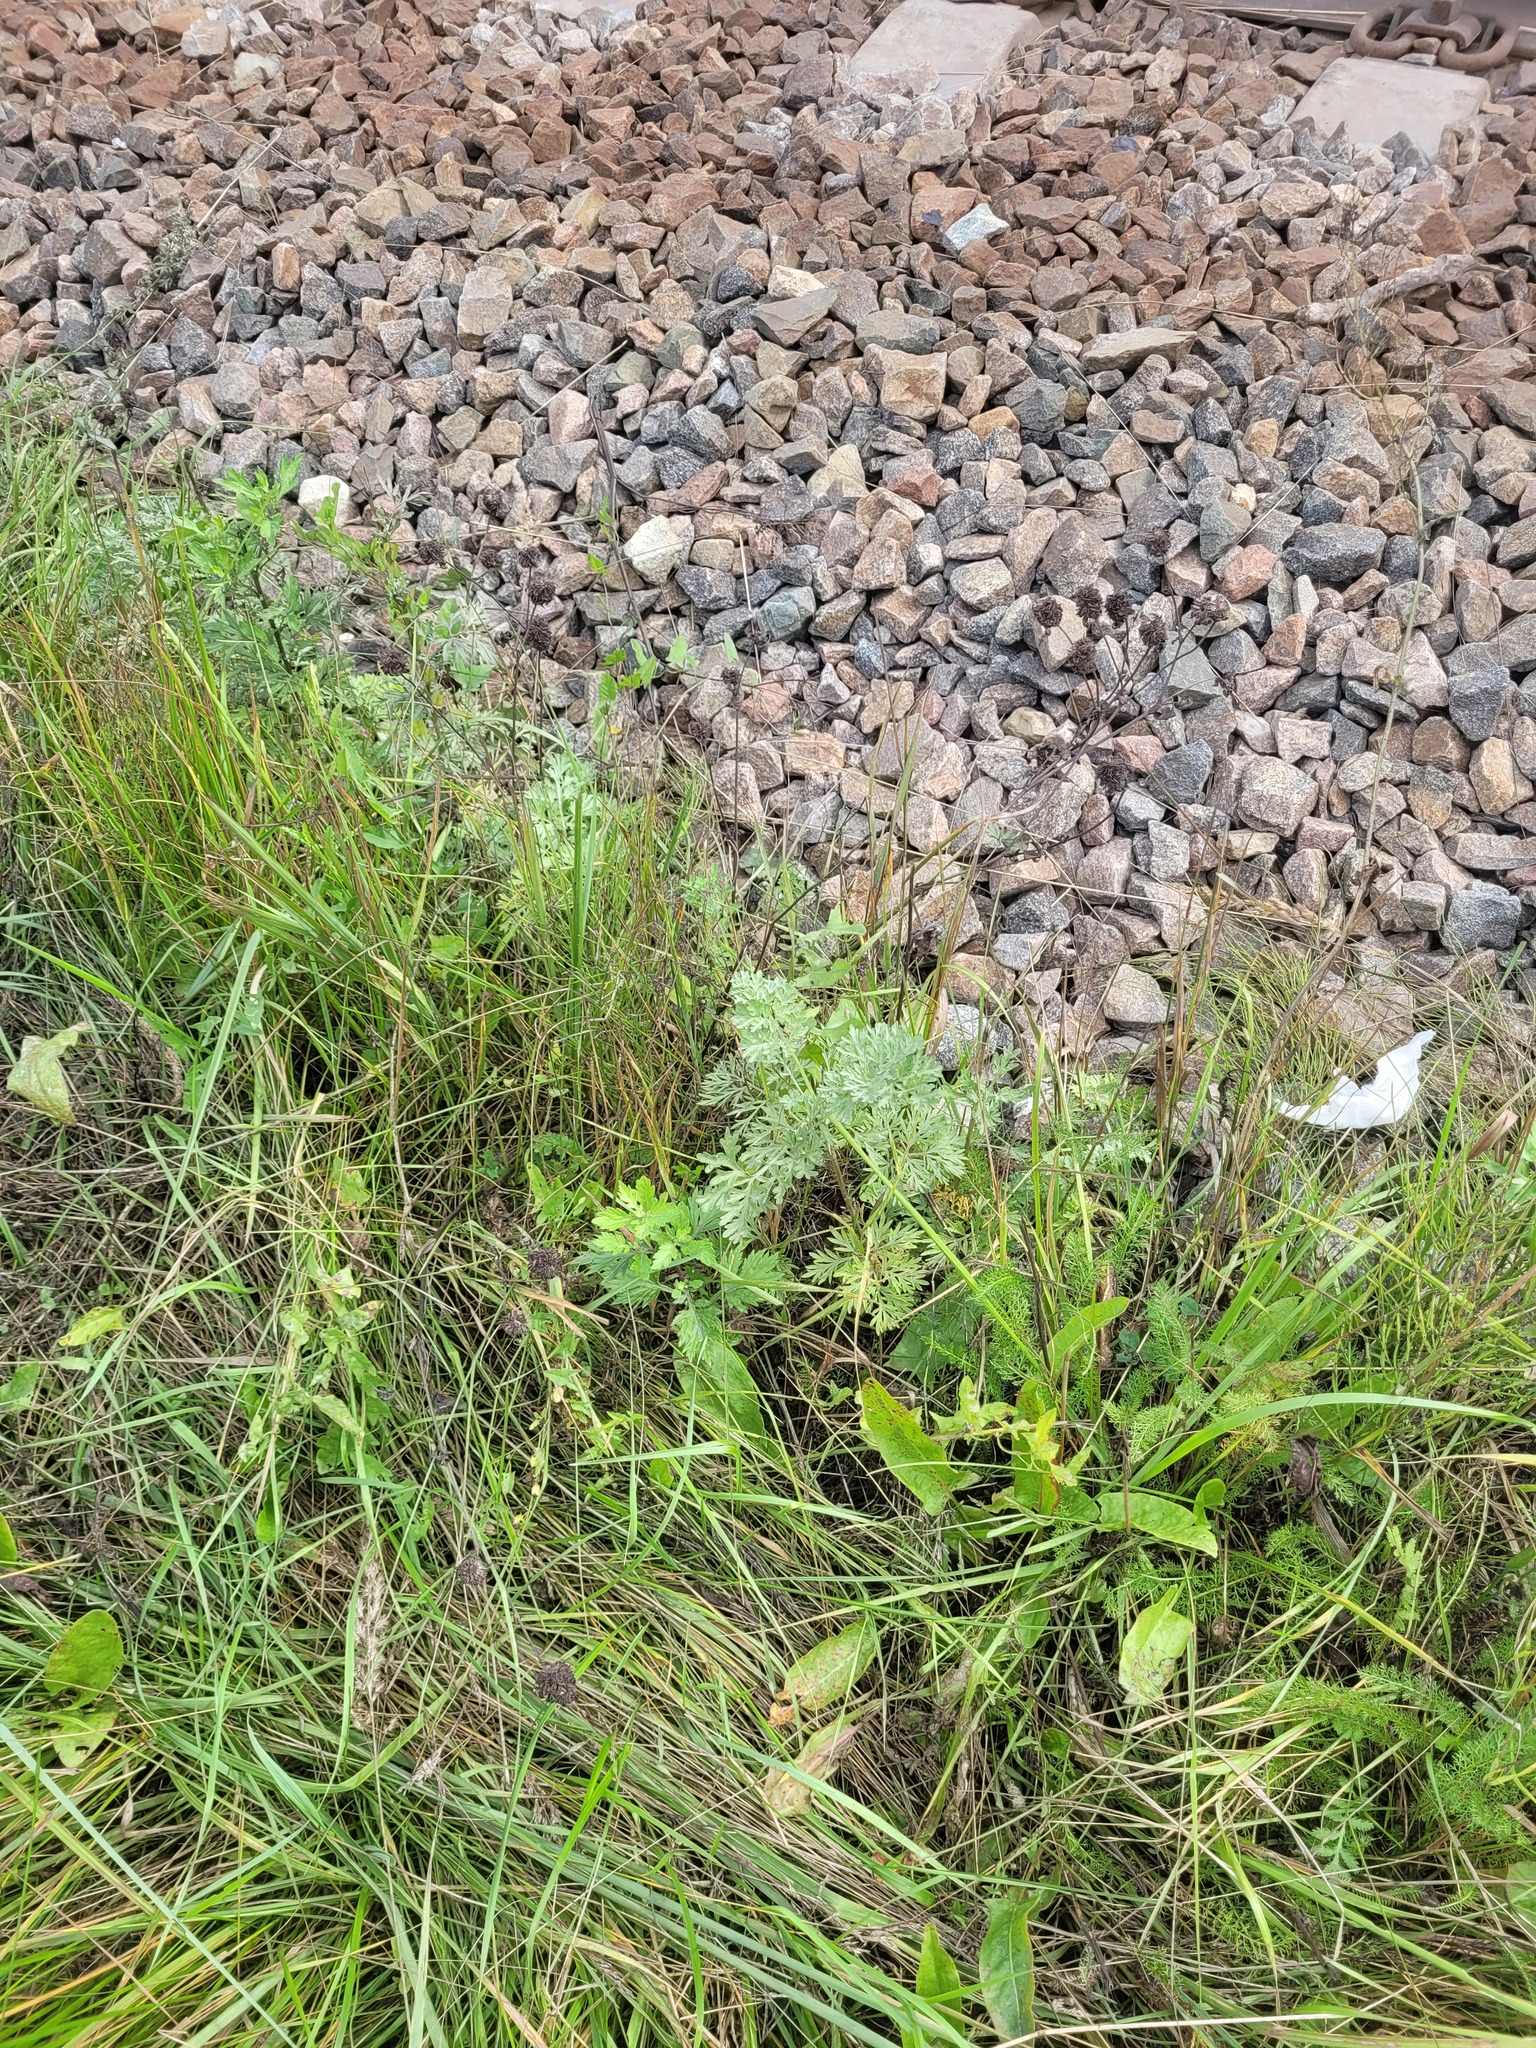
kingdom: Plantae
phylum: Tracheophyta
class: Magnoliopsida
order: Asterales
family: Asteraceae
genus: Artemisia
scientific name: Artemisia absinthium
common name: Wormwood
